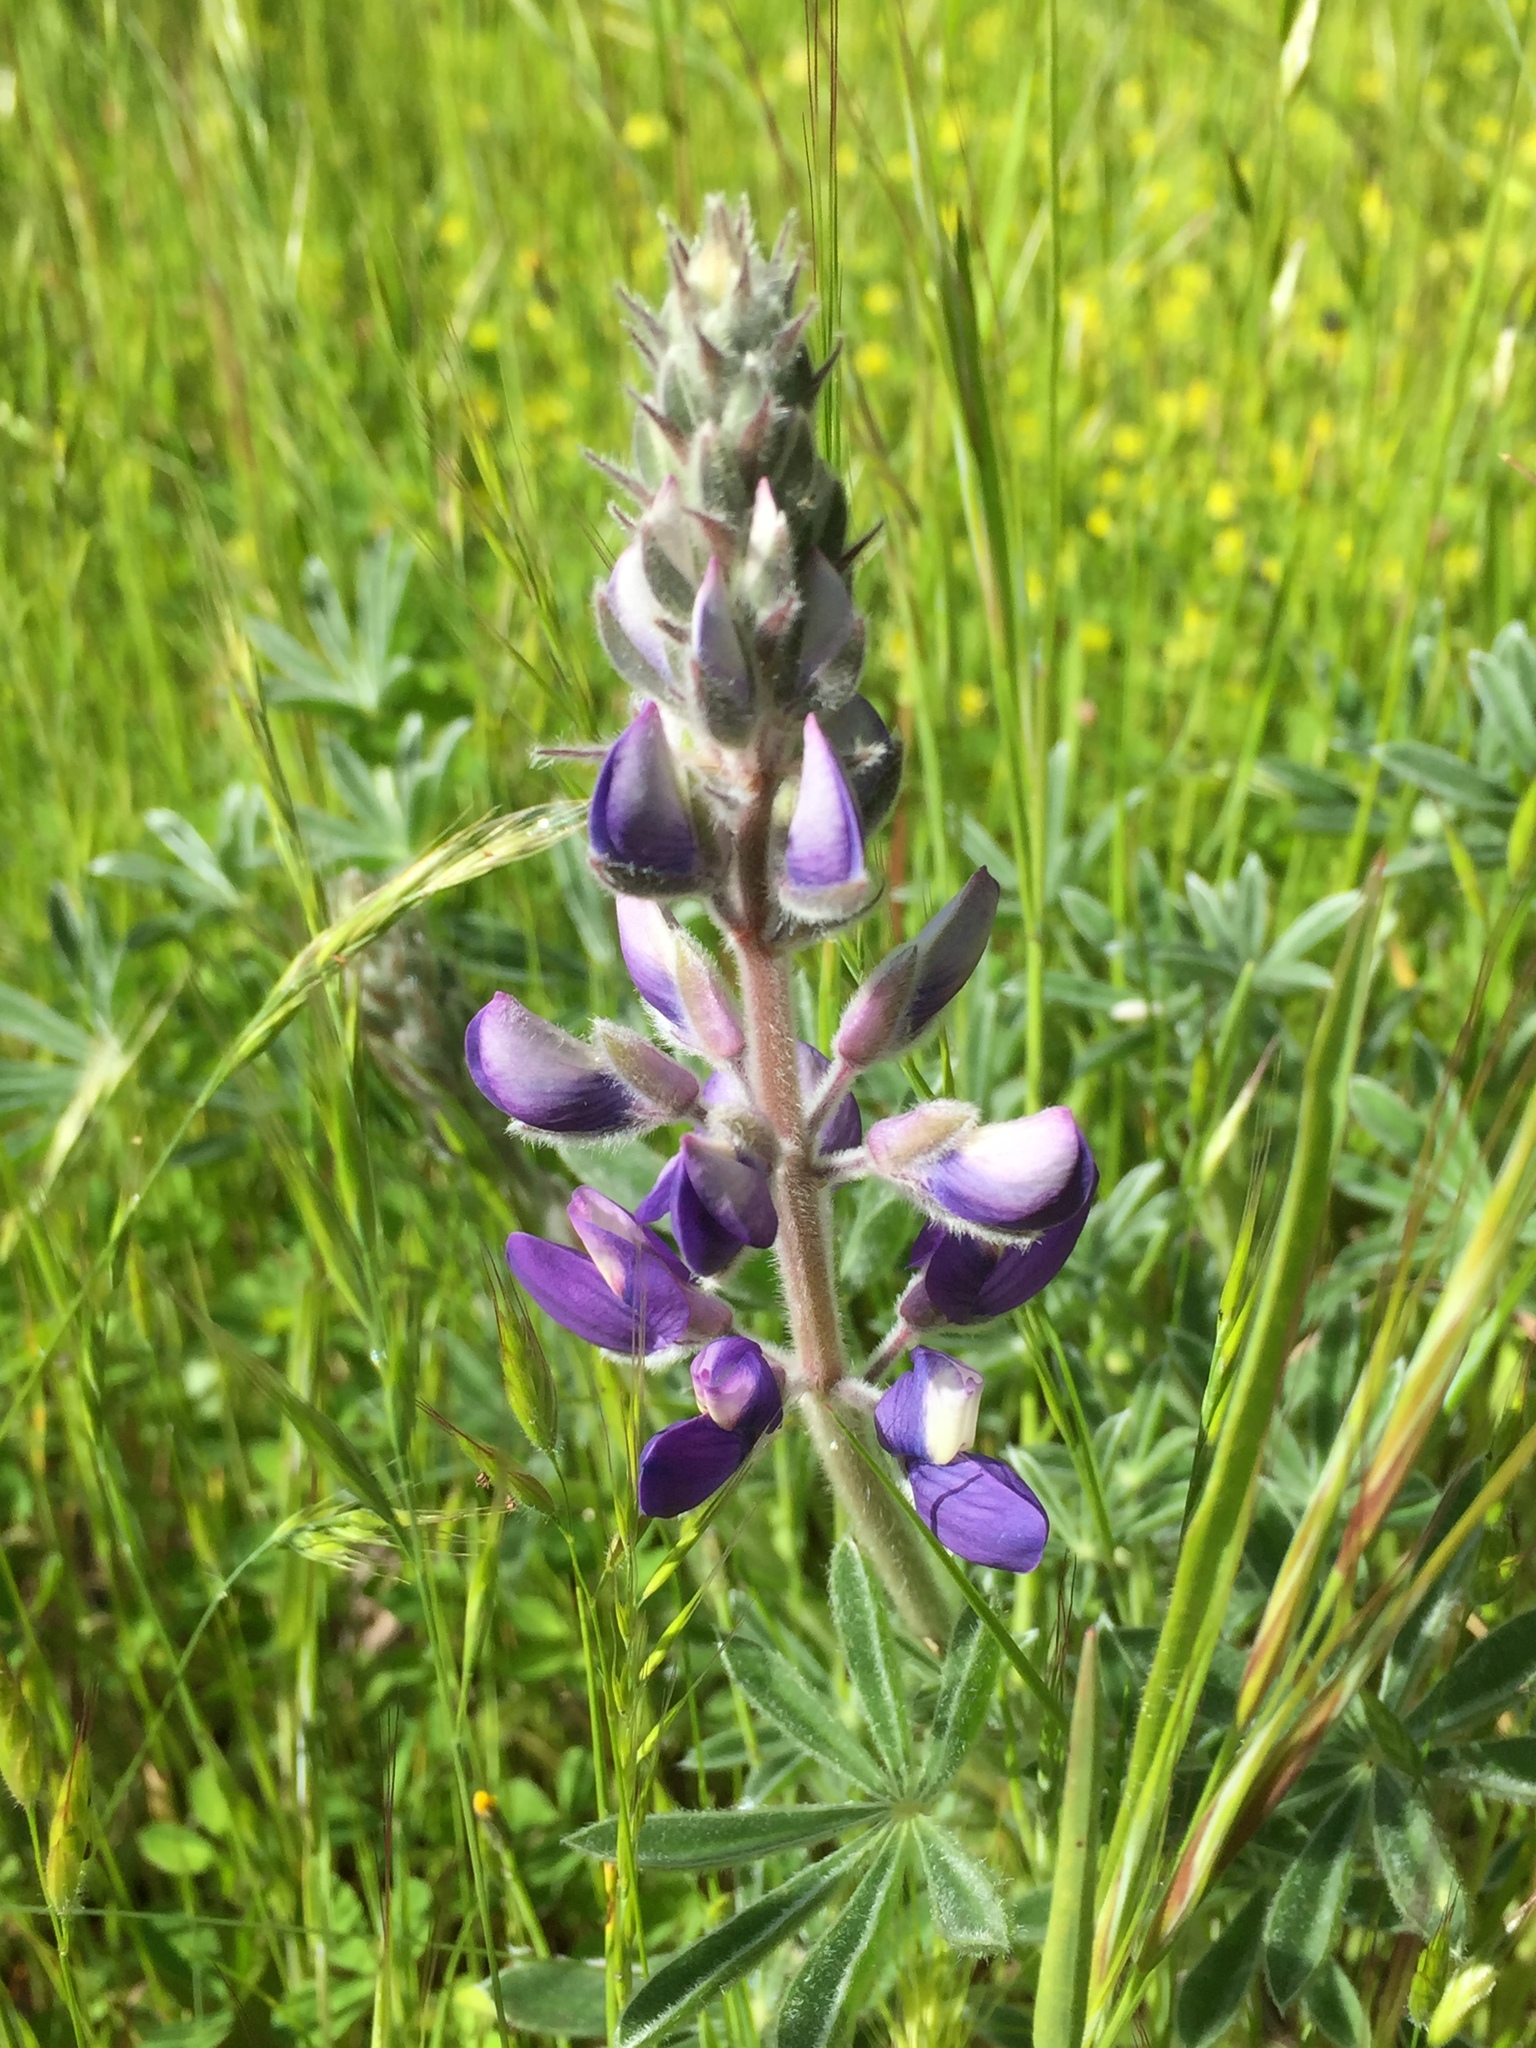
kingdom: Plantae
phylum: Tracheophyta
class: Magnoliopsida
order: Fabales
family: Fabaceae
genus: Lupinus
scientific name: Lupinus albifrons
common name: Foothill lupine
